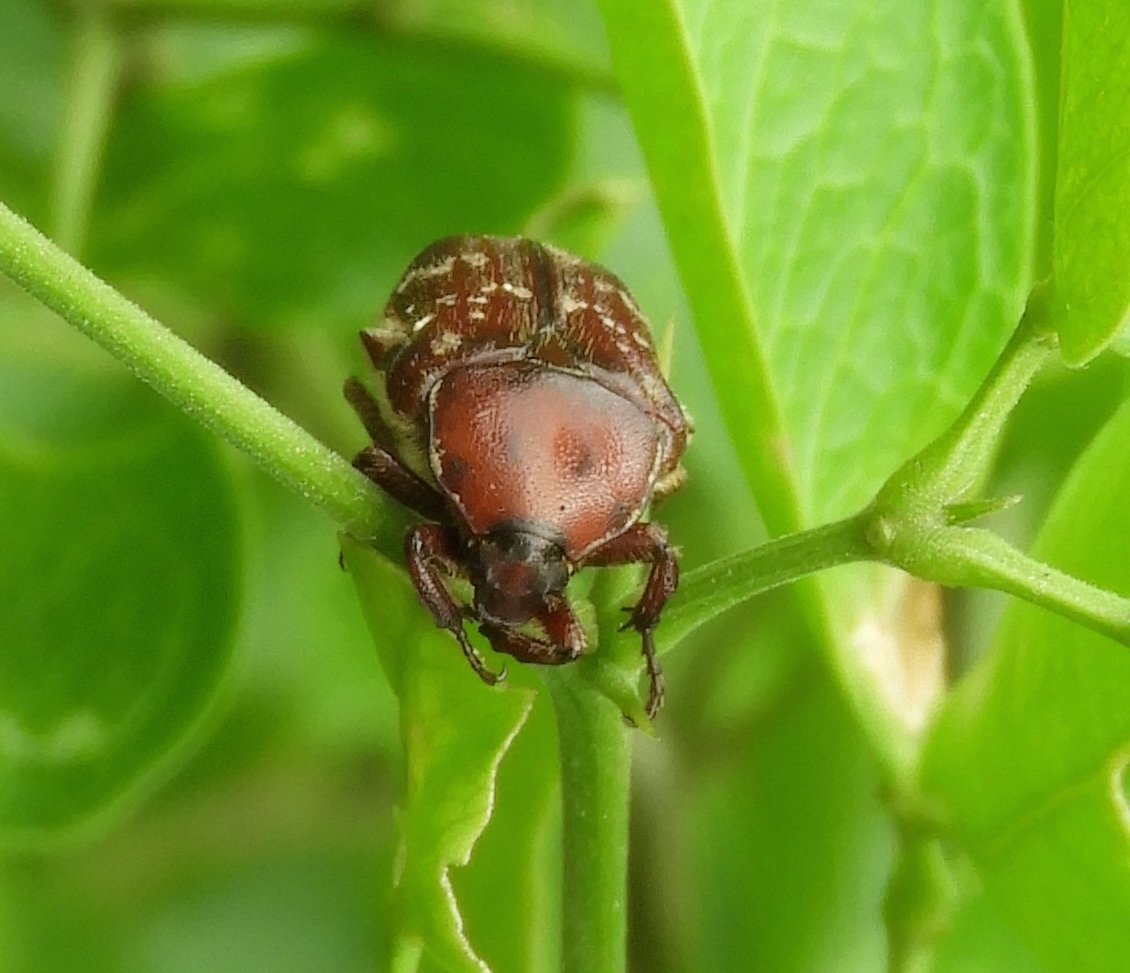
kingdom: Animalia
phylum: Arthropoda
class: Insecta
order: Coleoptera
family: Scarabaeidae
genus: Euphoria
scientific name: Euphoria leucographa
